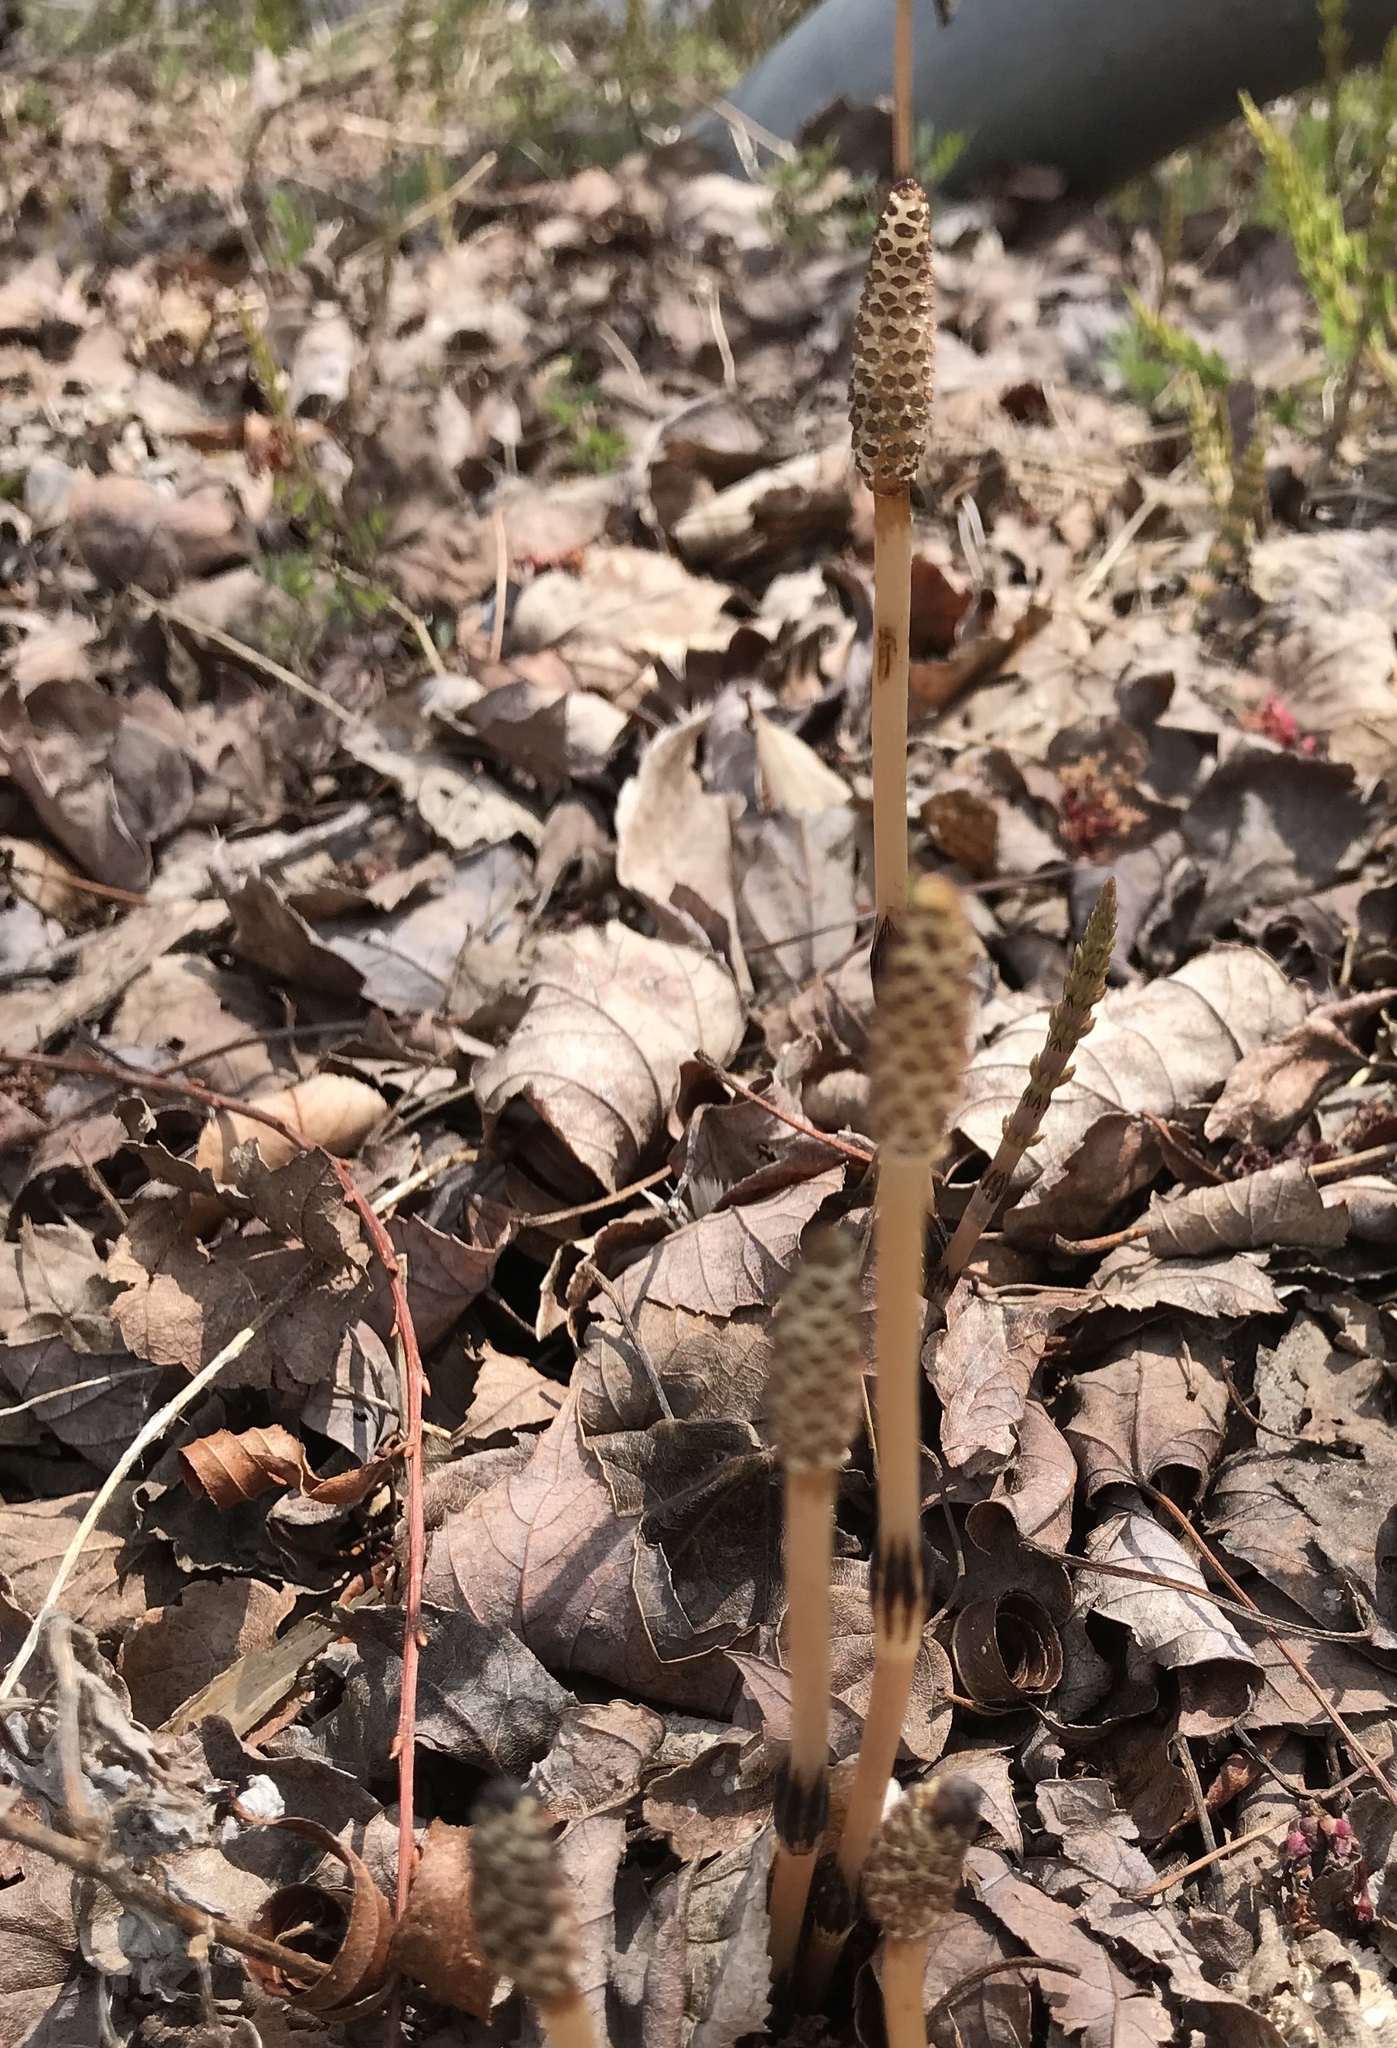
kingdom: Plantae
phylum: Tracheophyta
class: Polypodiopsida
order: Equisetales
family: Equisetaceae
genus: Equisetum
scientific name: Equisetum arvense
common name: Field horsetail
